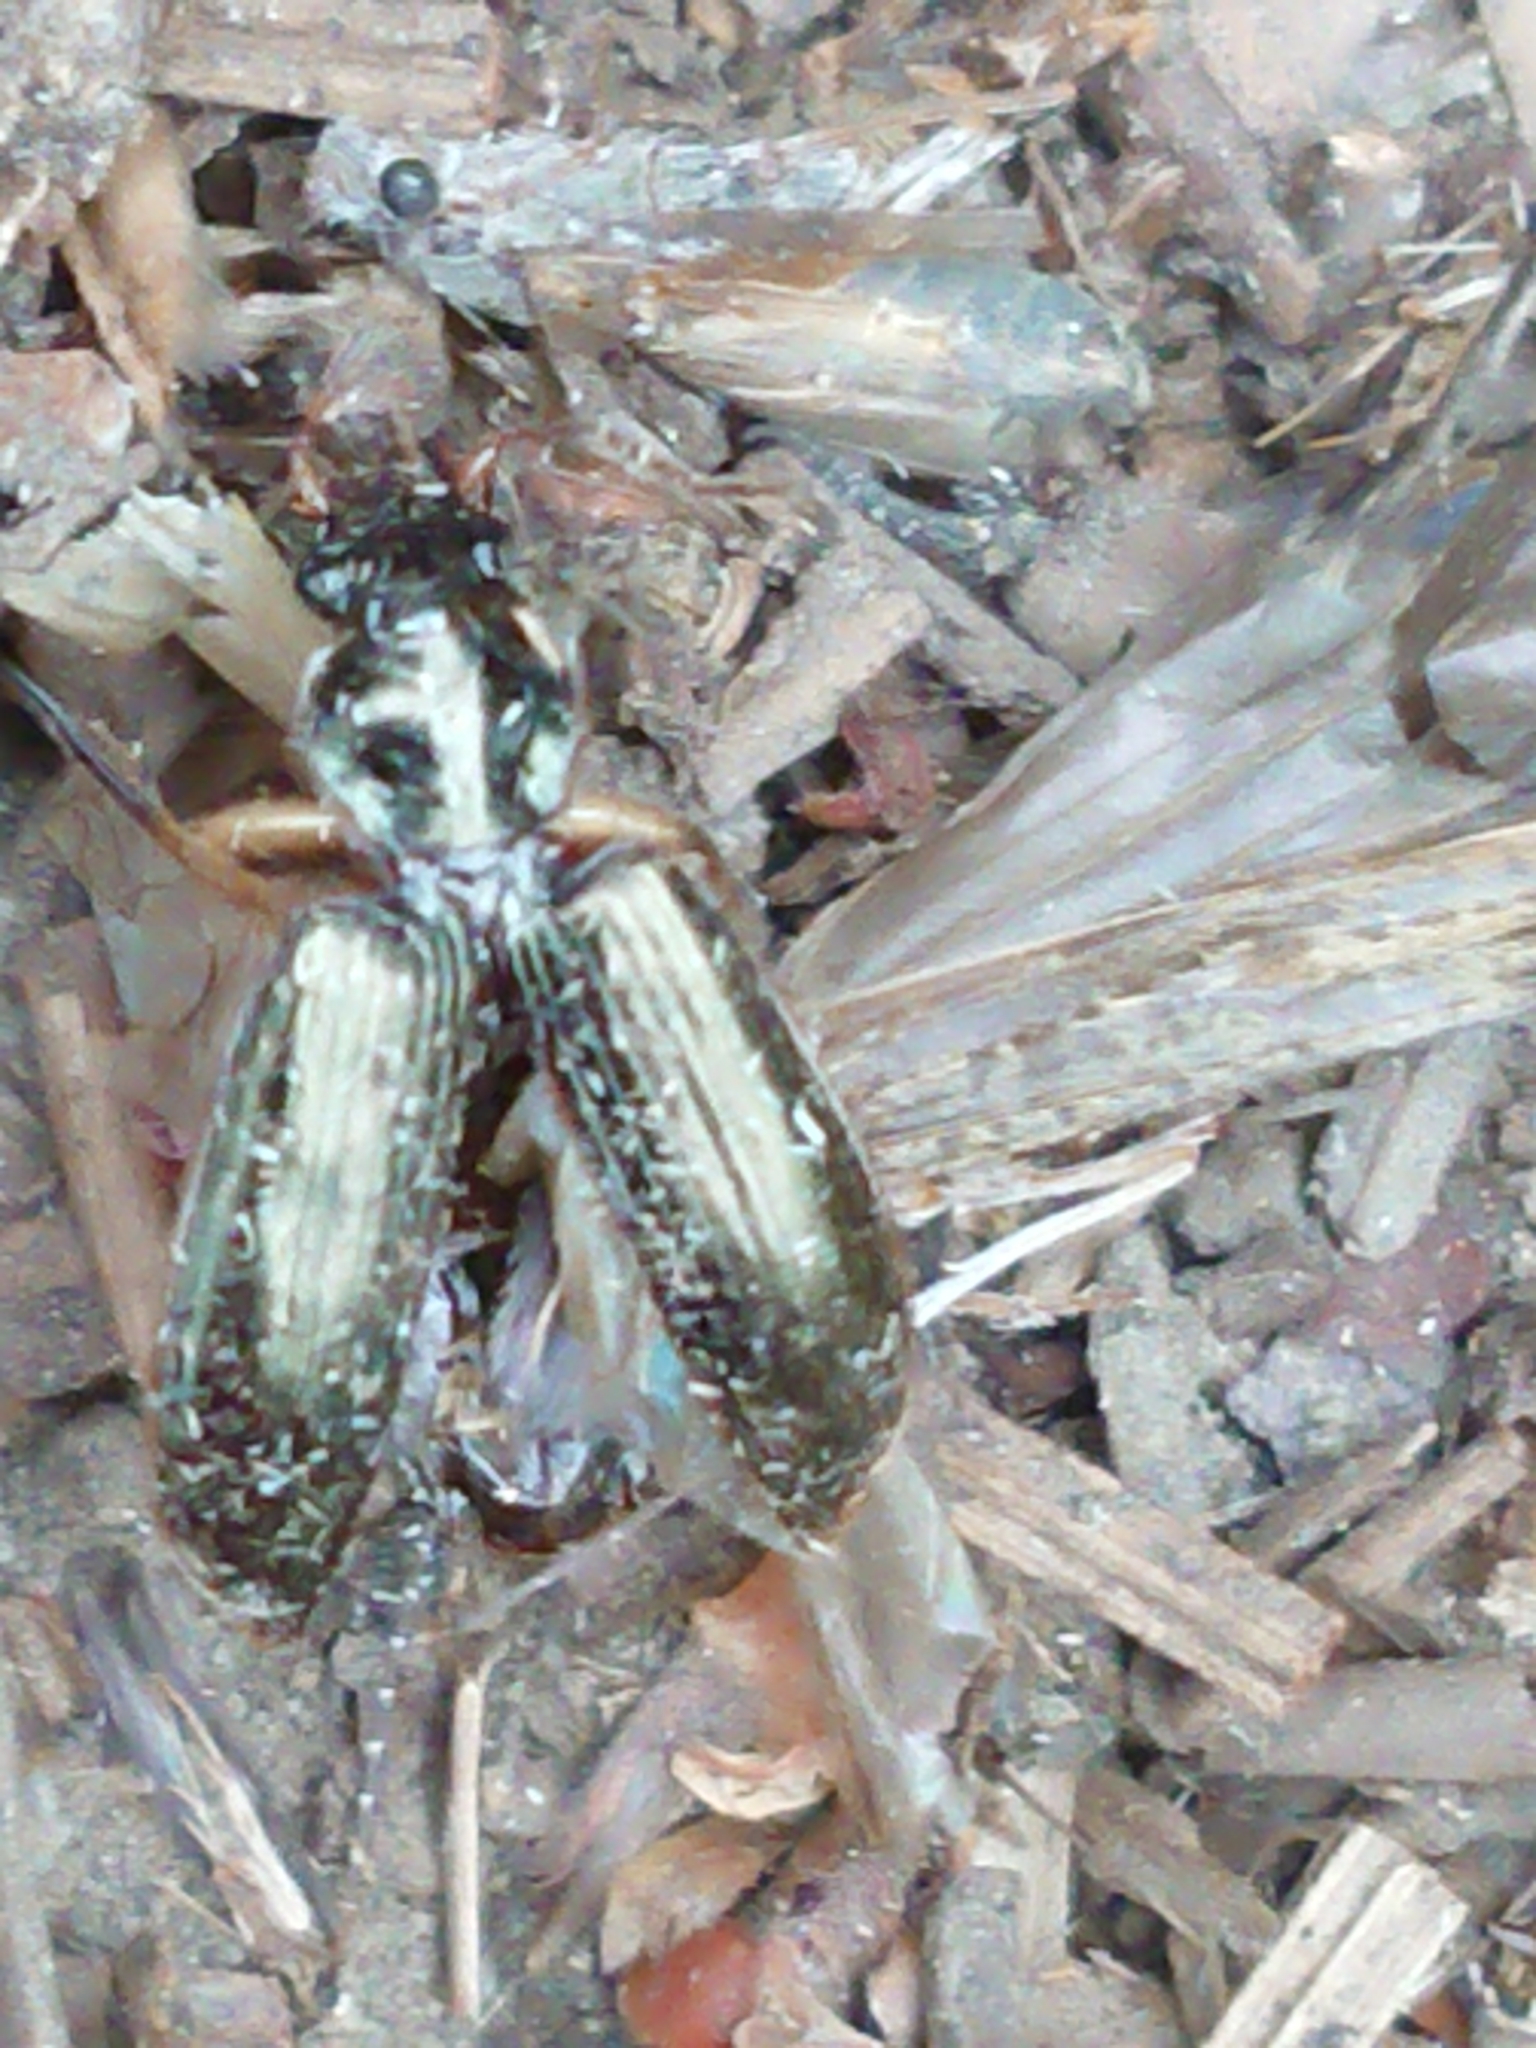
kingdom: Animalia
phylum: Arthropoda
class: Insecta
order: Coleoptera
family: Carabidae
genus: Notagonum
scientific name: Notagonum submetallicum
